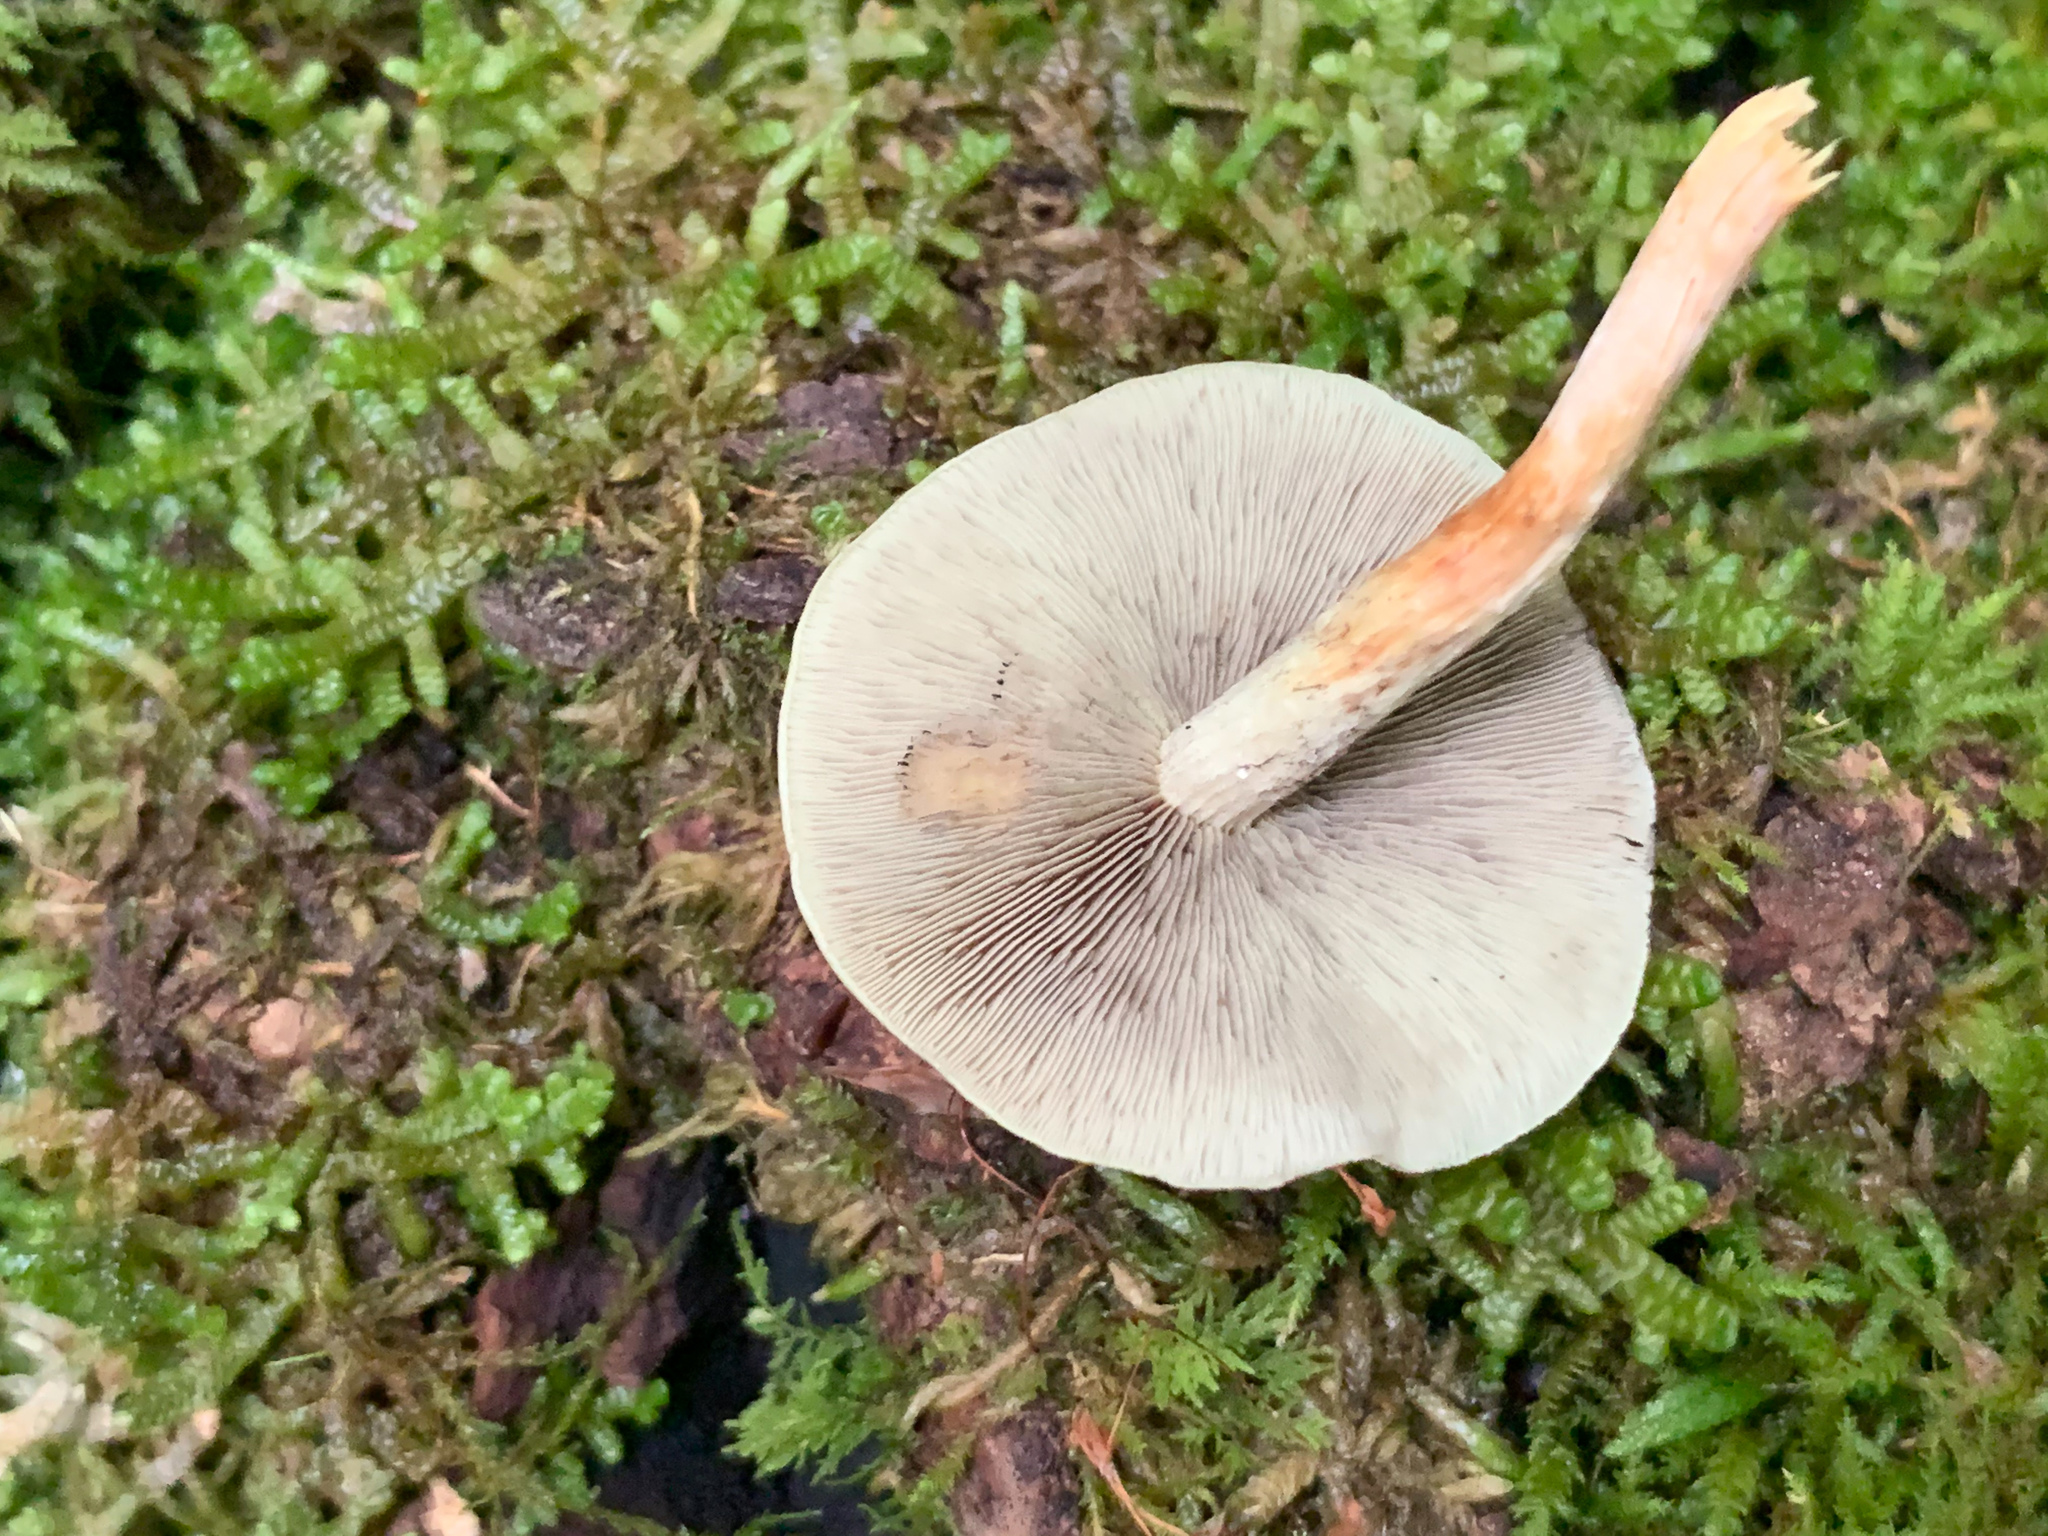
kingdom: Fungi
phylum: Basidiomycota
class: Agaricomycetes
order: Agaricales
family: Strophariaceae
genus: Hypholoma
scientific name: Hypholoma fasciculare
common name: Sulphur tuft
